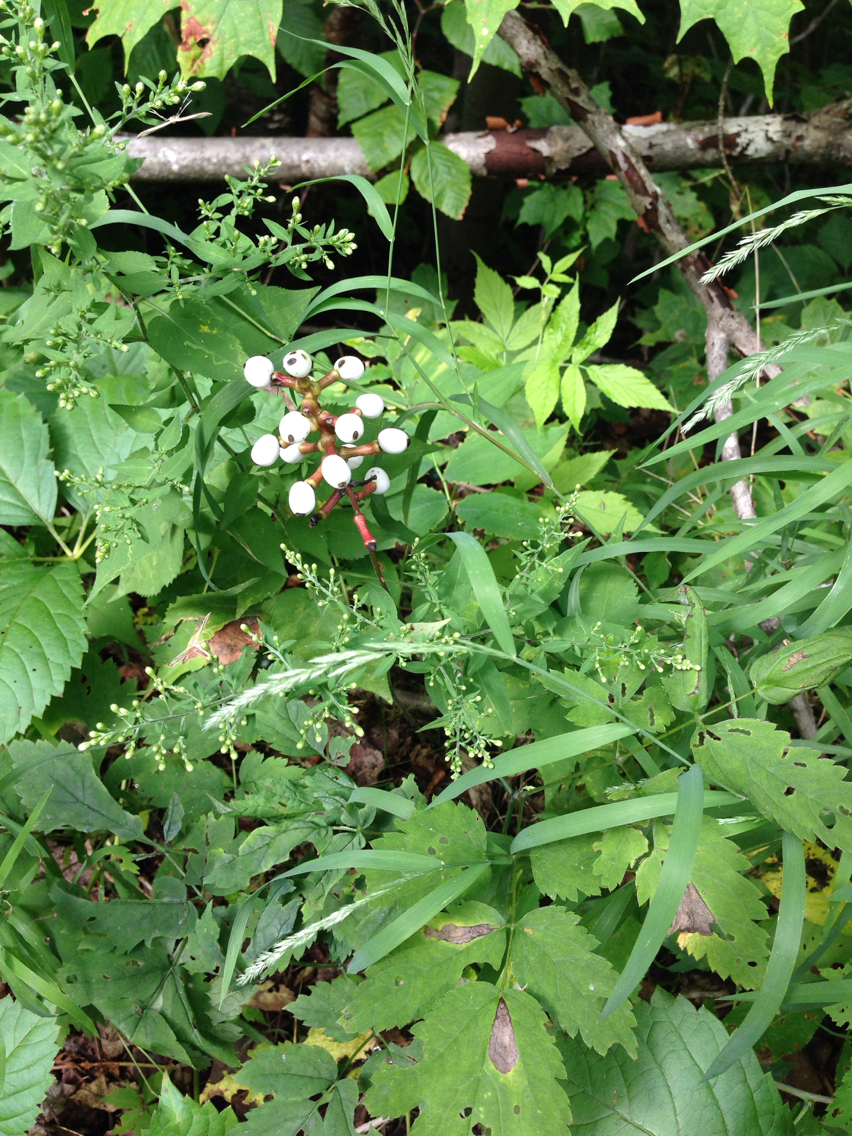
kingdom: Plantae
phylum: Tracheophyta
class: Magnoliopsida
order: Ranunculales
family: Ranunculaceae
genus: Actaea
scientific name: Actaea pachypoda
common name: Doll's-eyes
